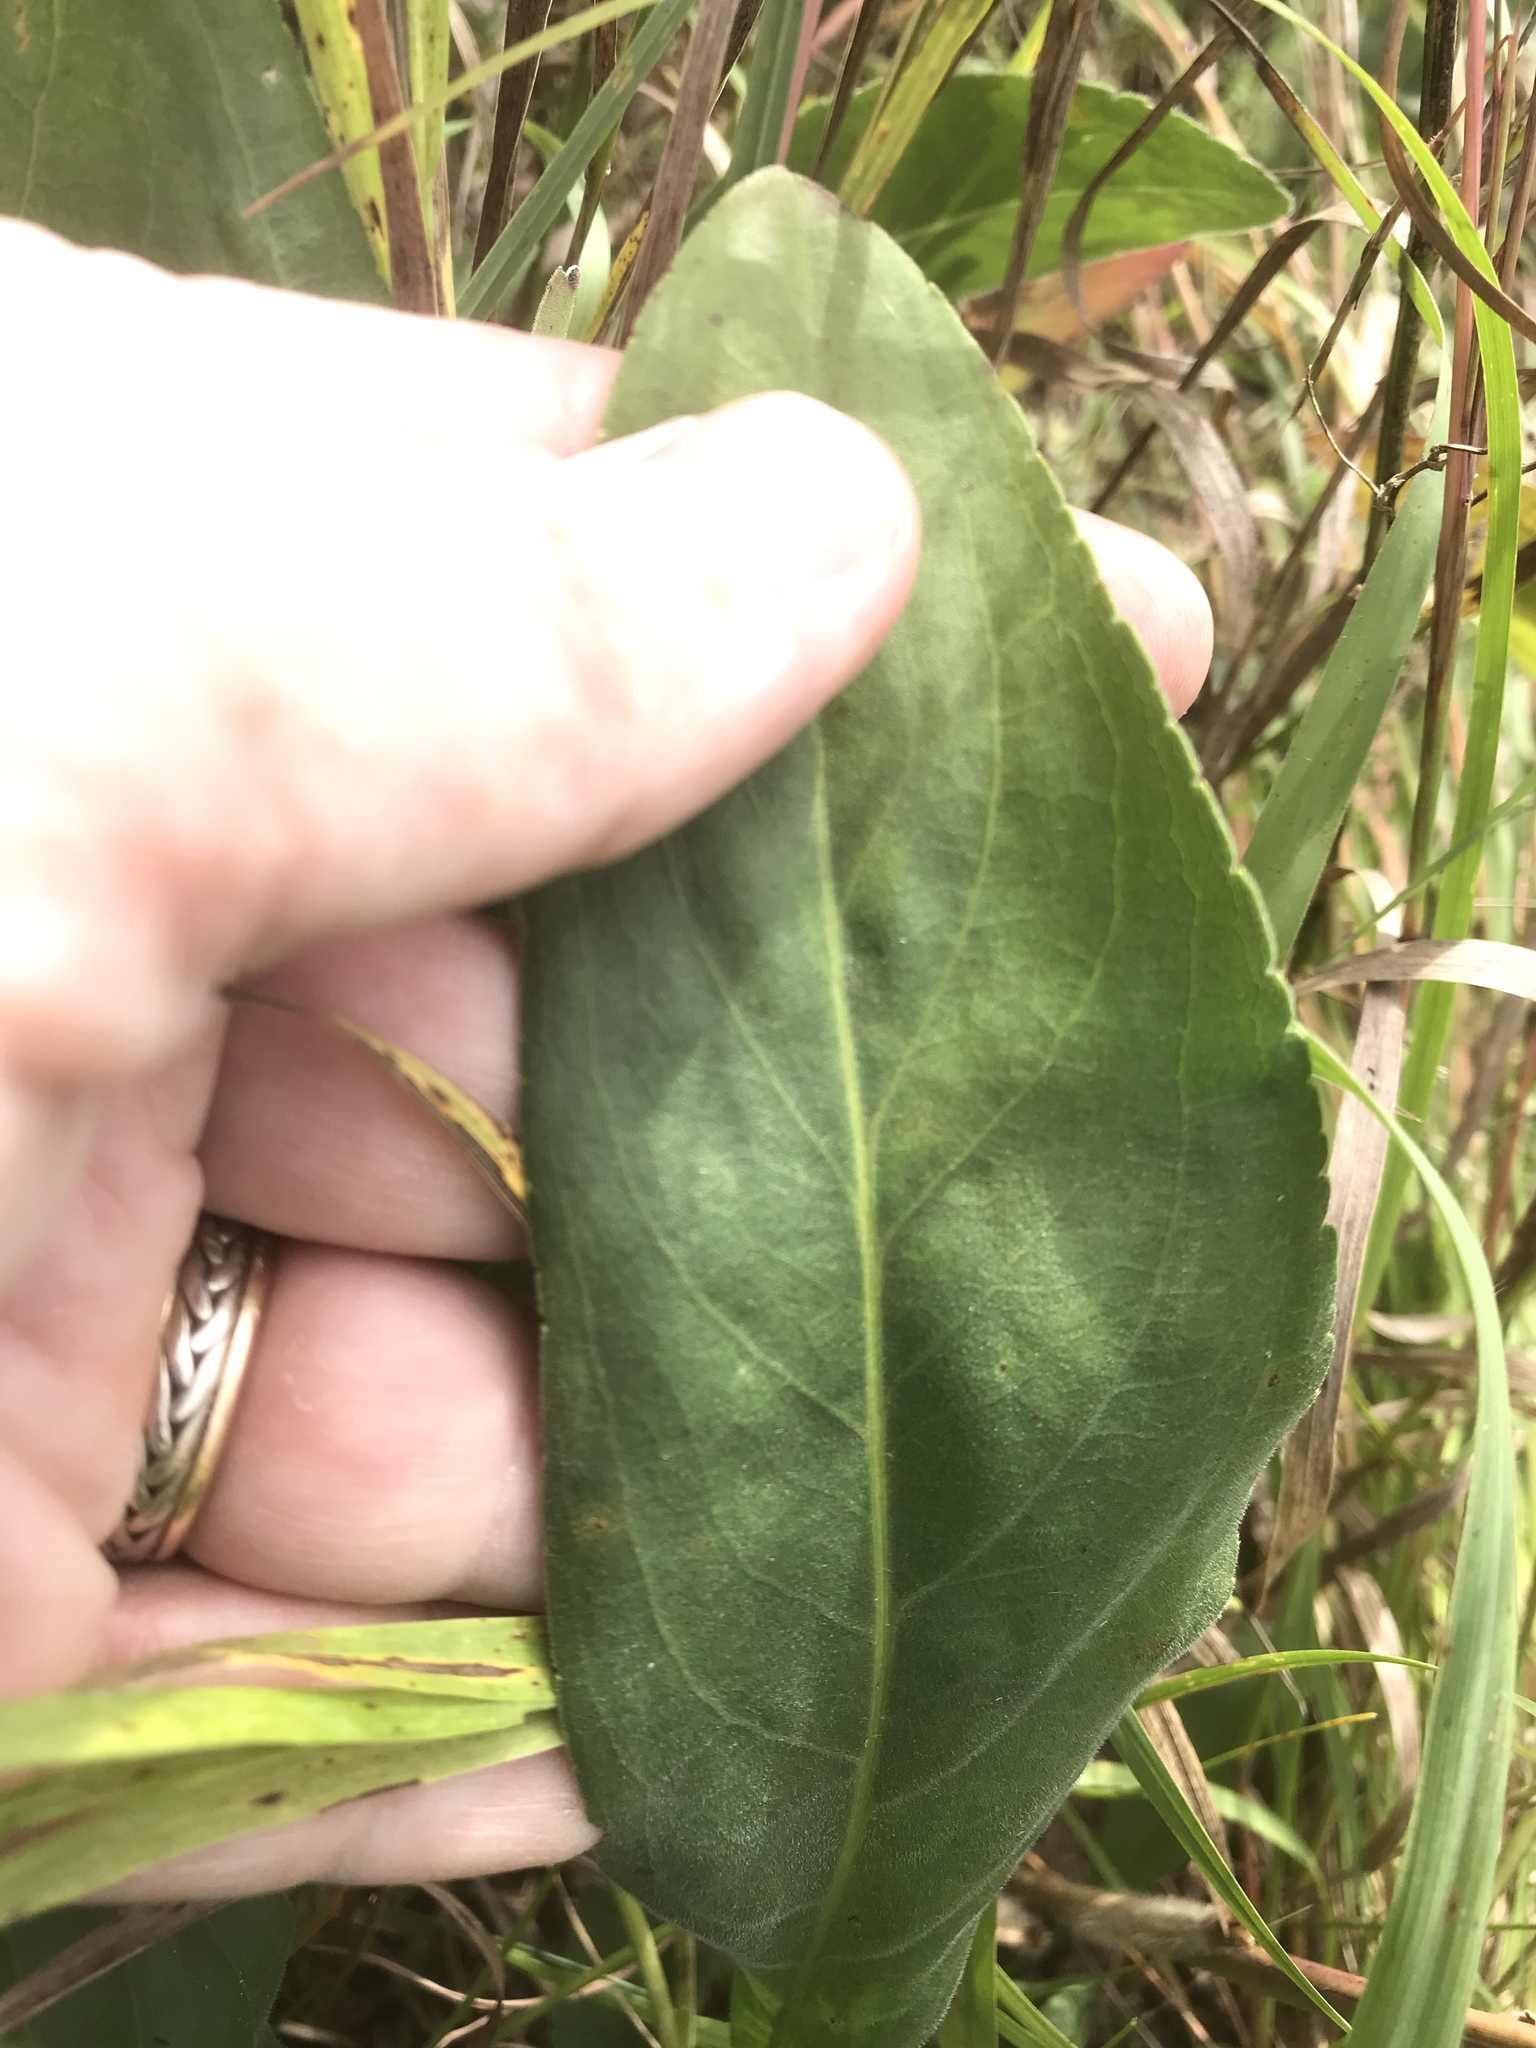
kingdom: Plantae
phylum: Tracheophyta
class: Magnoliopsida
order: Asterales
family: Asteraceae
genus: Solidago
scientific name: Solidago rigida
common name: Rigid goldenrod
